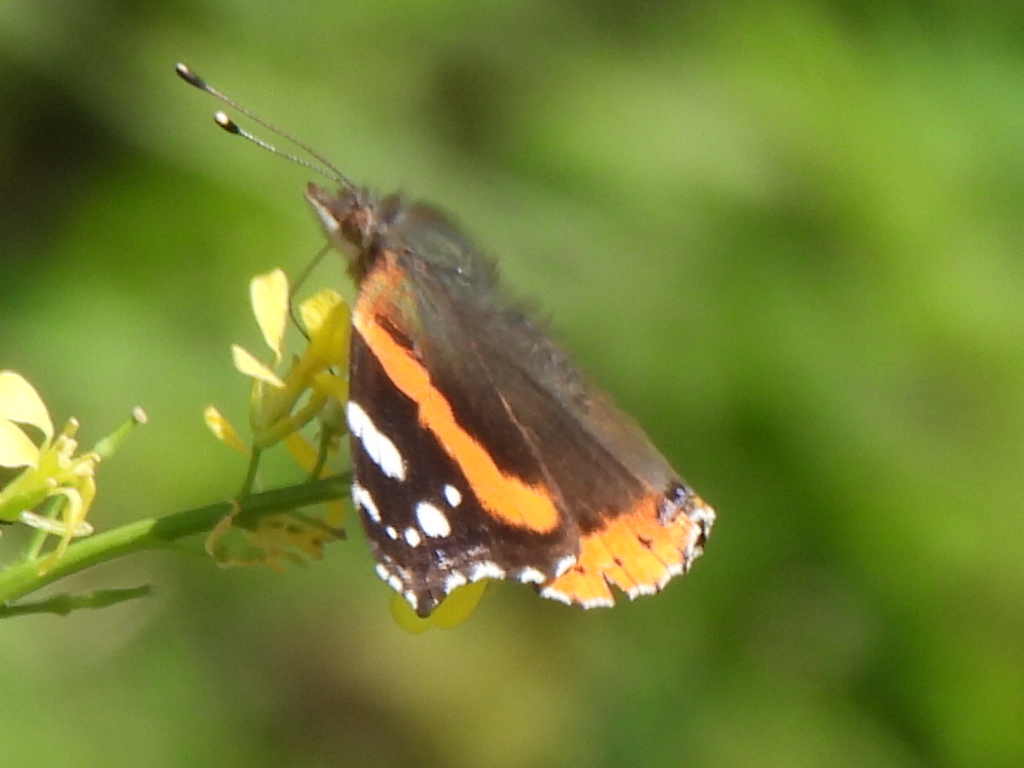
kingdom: Animalia
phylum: Arthropoda
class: Insecta
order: Lepidoptera
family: Nymphalidae
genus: Vanessa
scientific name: Vanessa atalanta
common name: Red admiral
